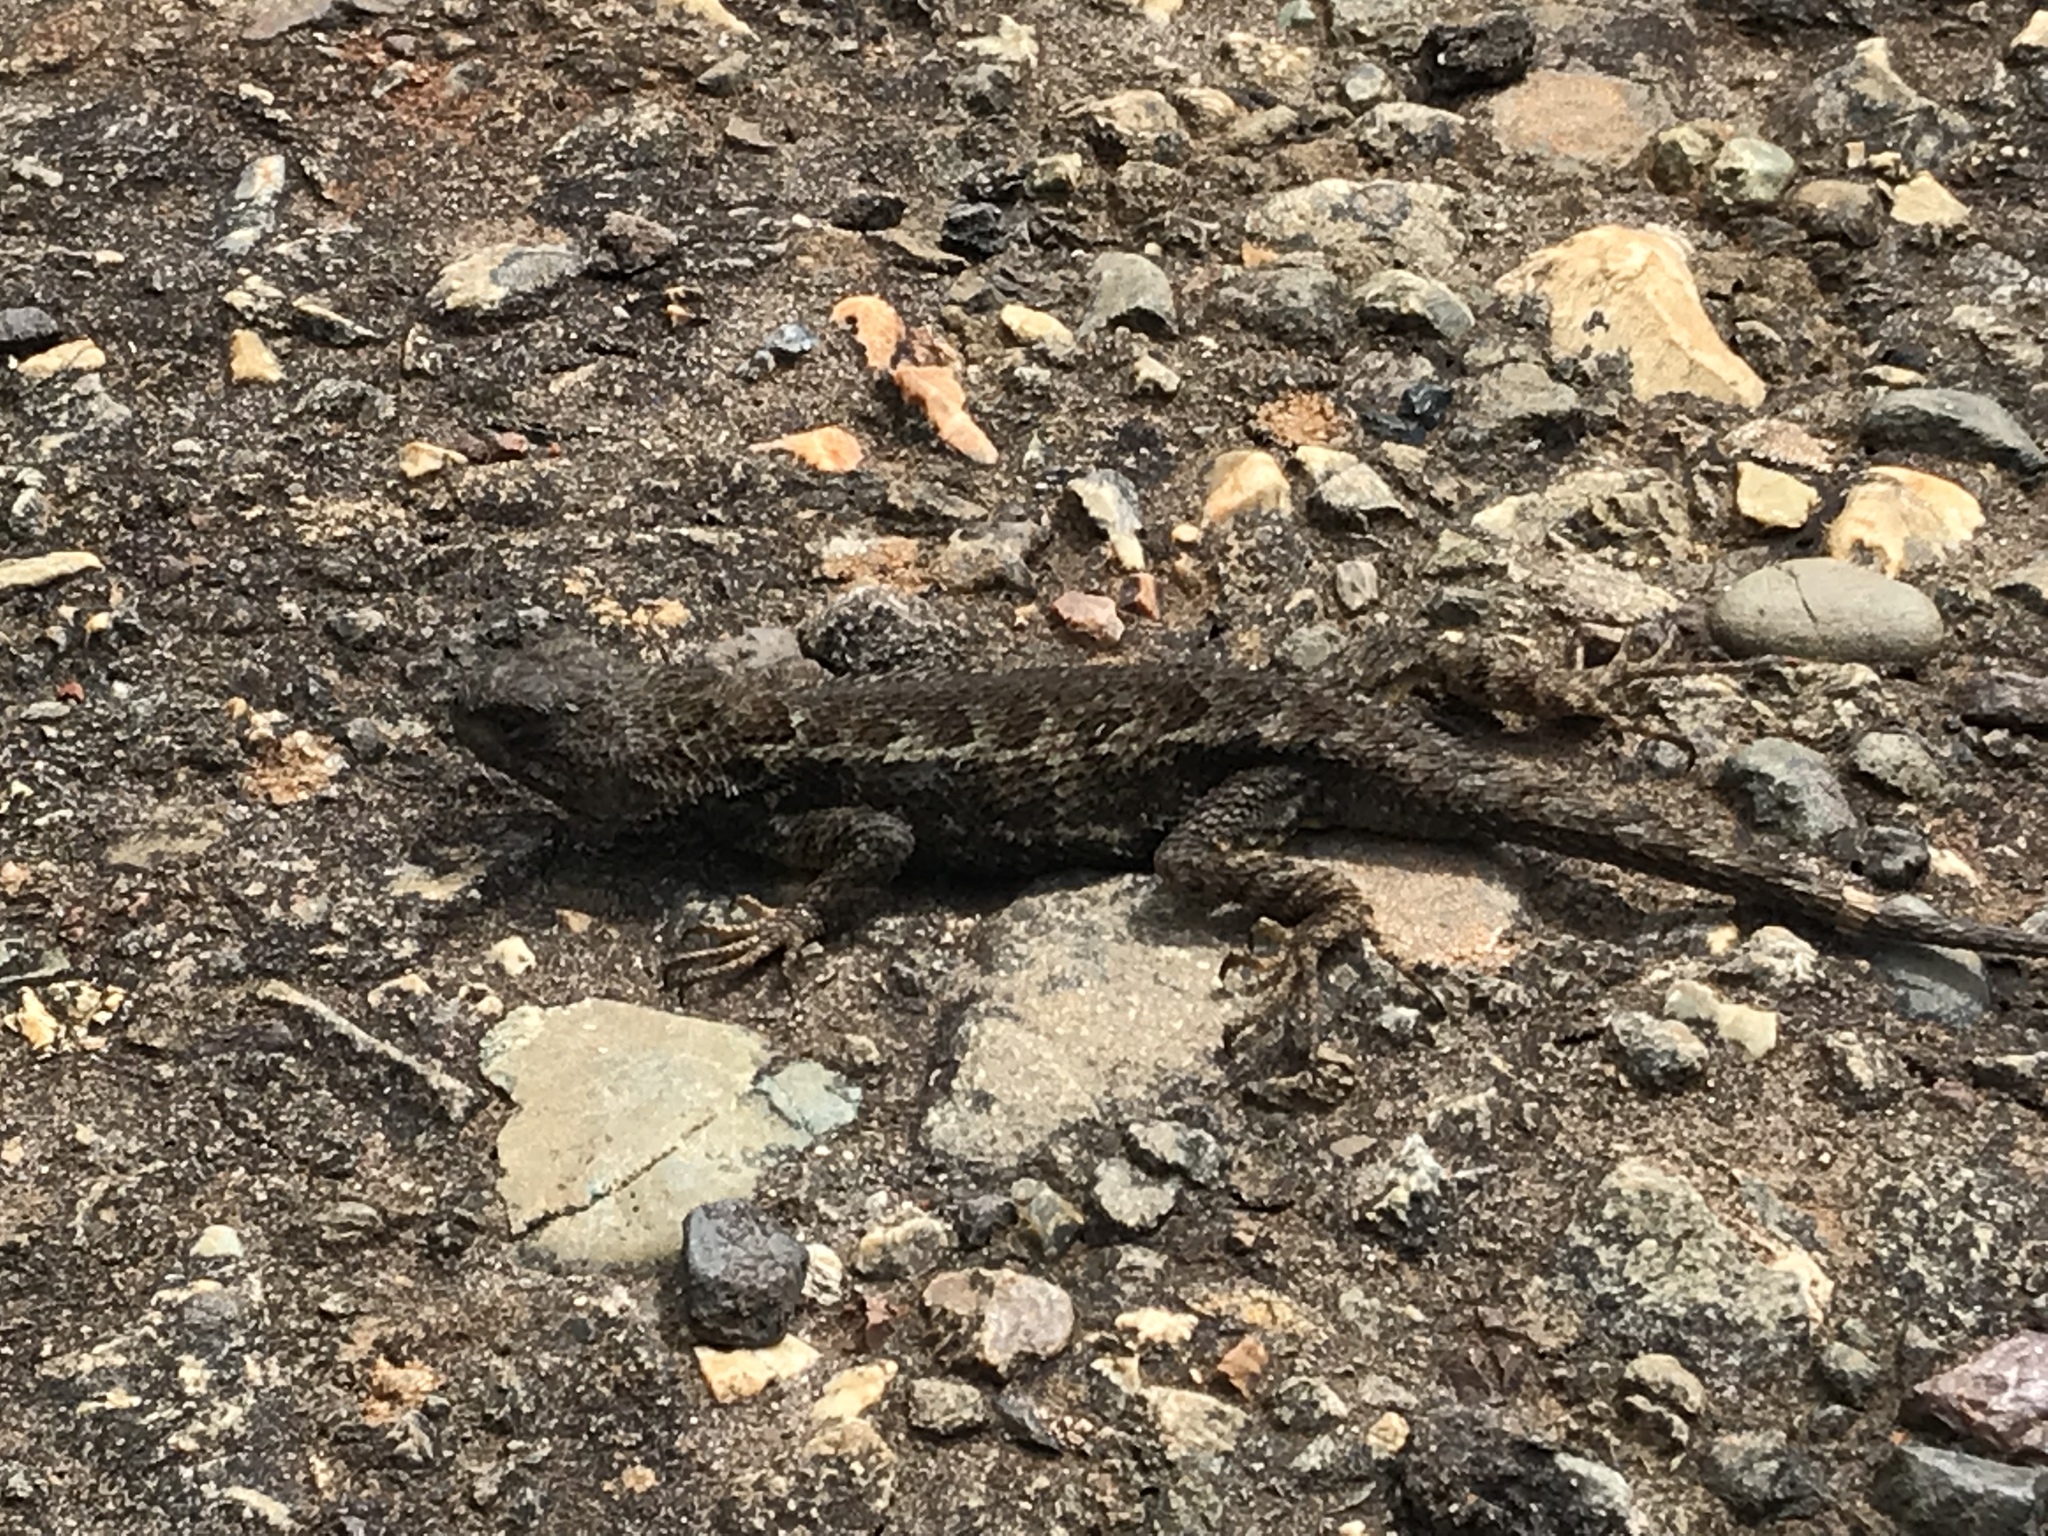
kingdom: Animalia
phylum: Chordata
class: Squamata
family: Phrynosomatidae
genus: Sceloporus
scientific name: Sceloporus occidentalis
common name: Western fence lizard
